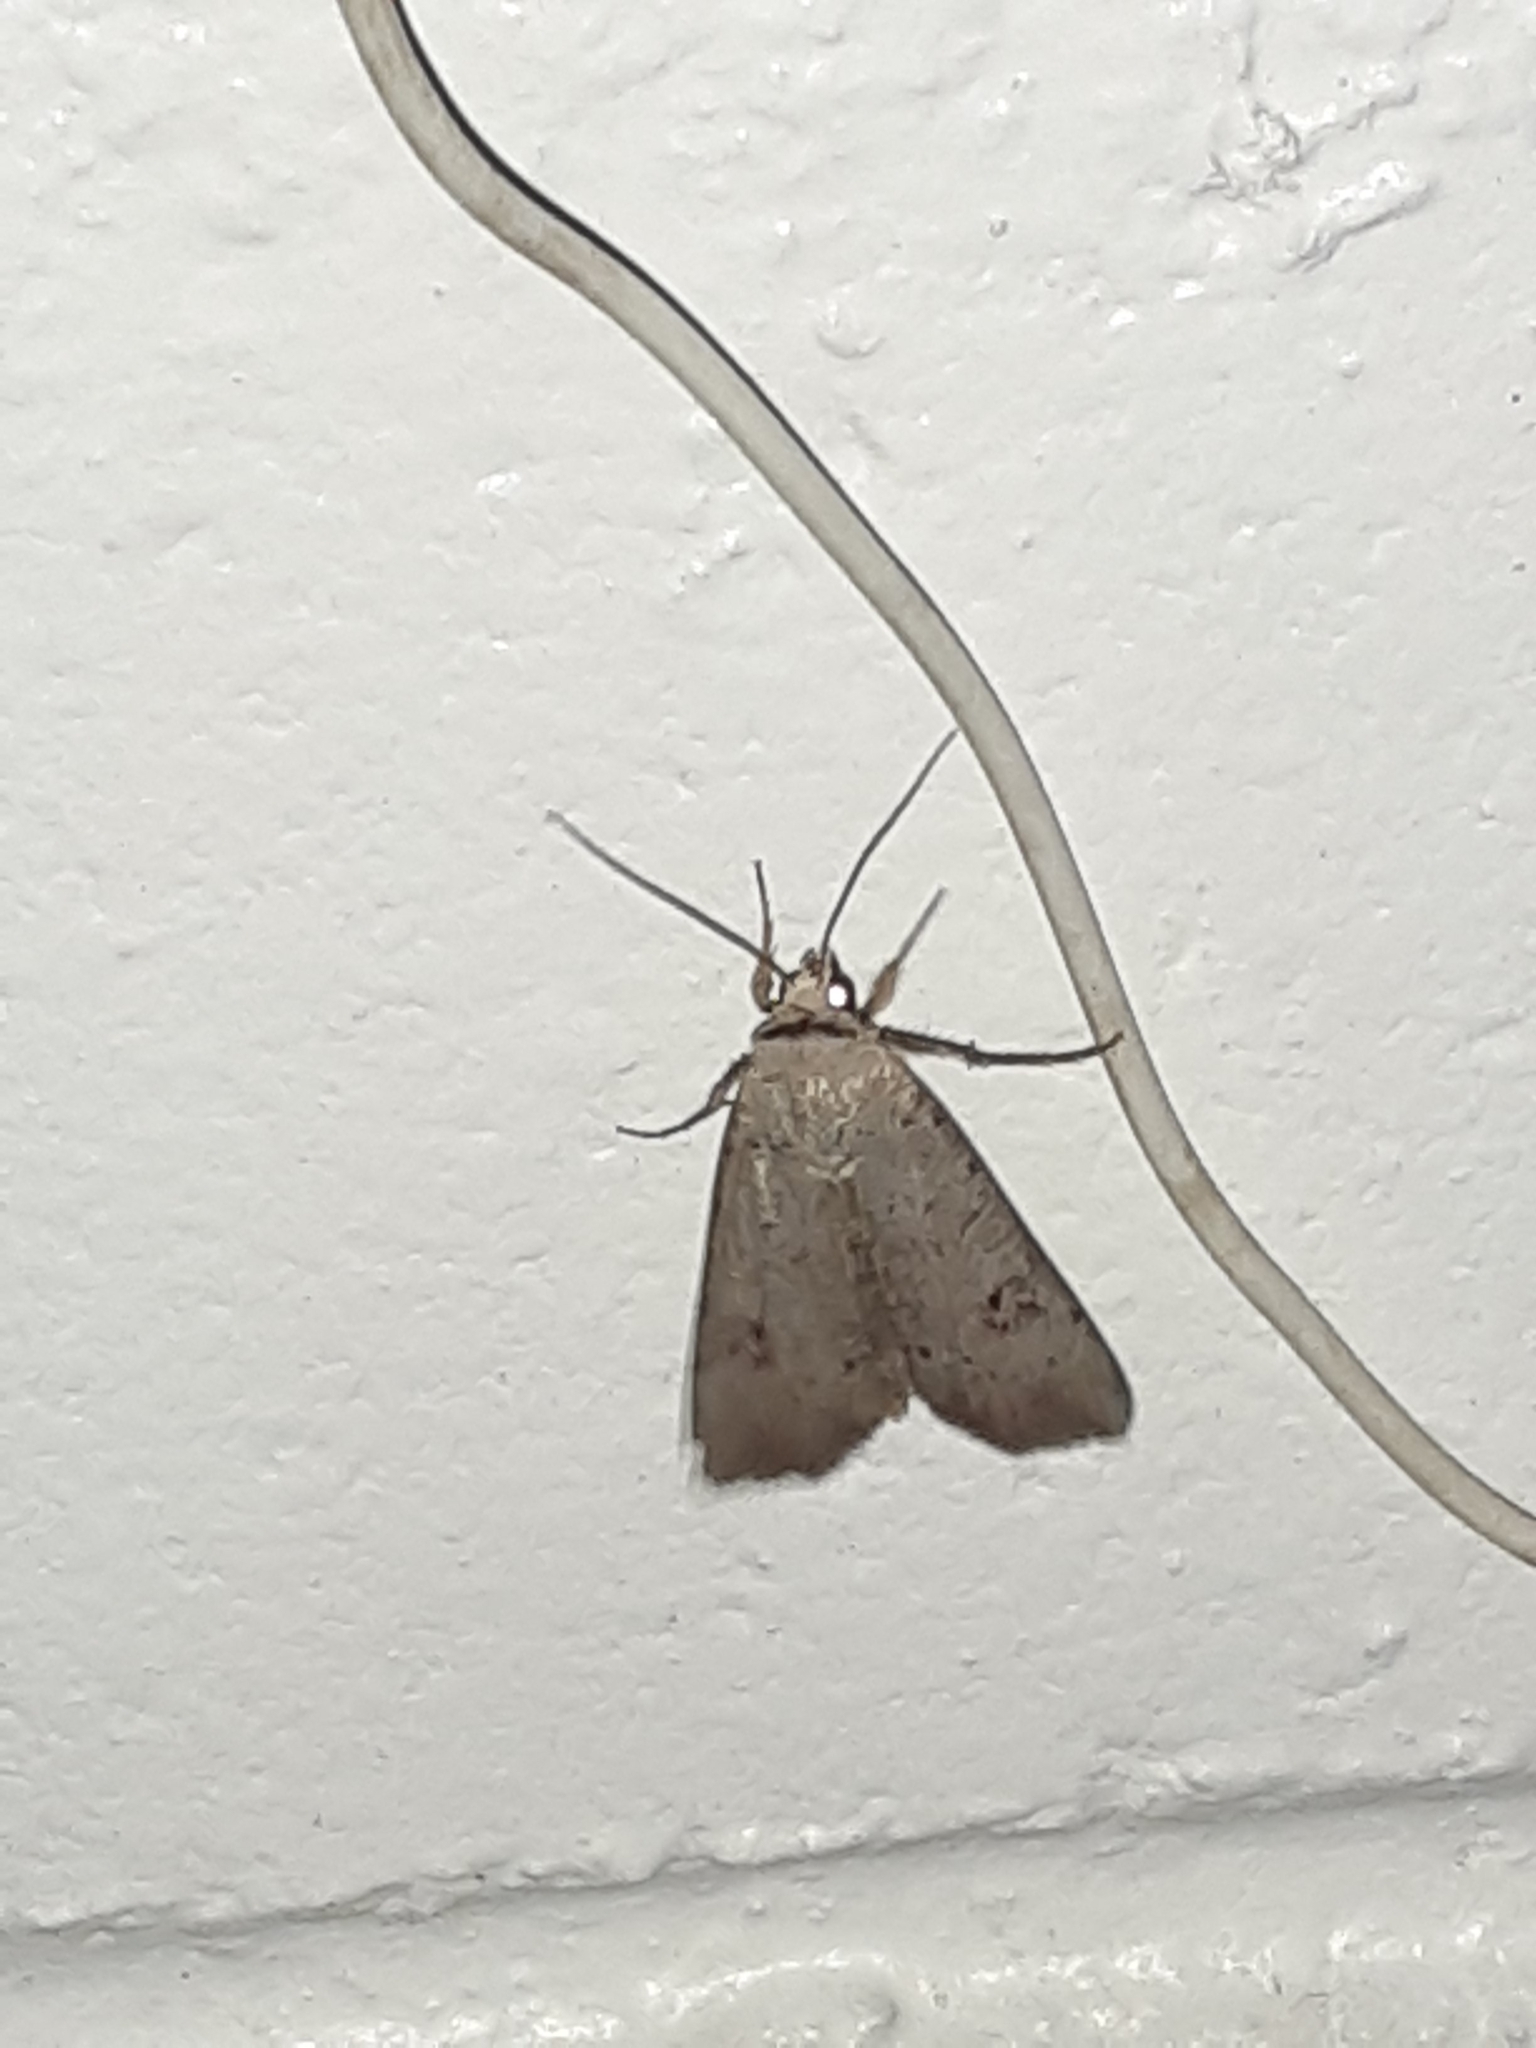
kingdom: Animalia
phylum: Arthropoda
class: Insecta
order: Lepidoptera
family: Noctuidae
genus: Anicla
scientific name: Anicla infecta
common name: Green cutworm
